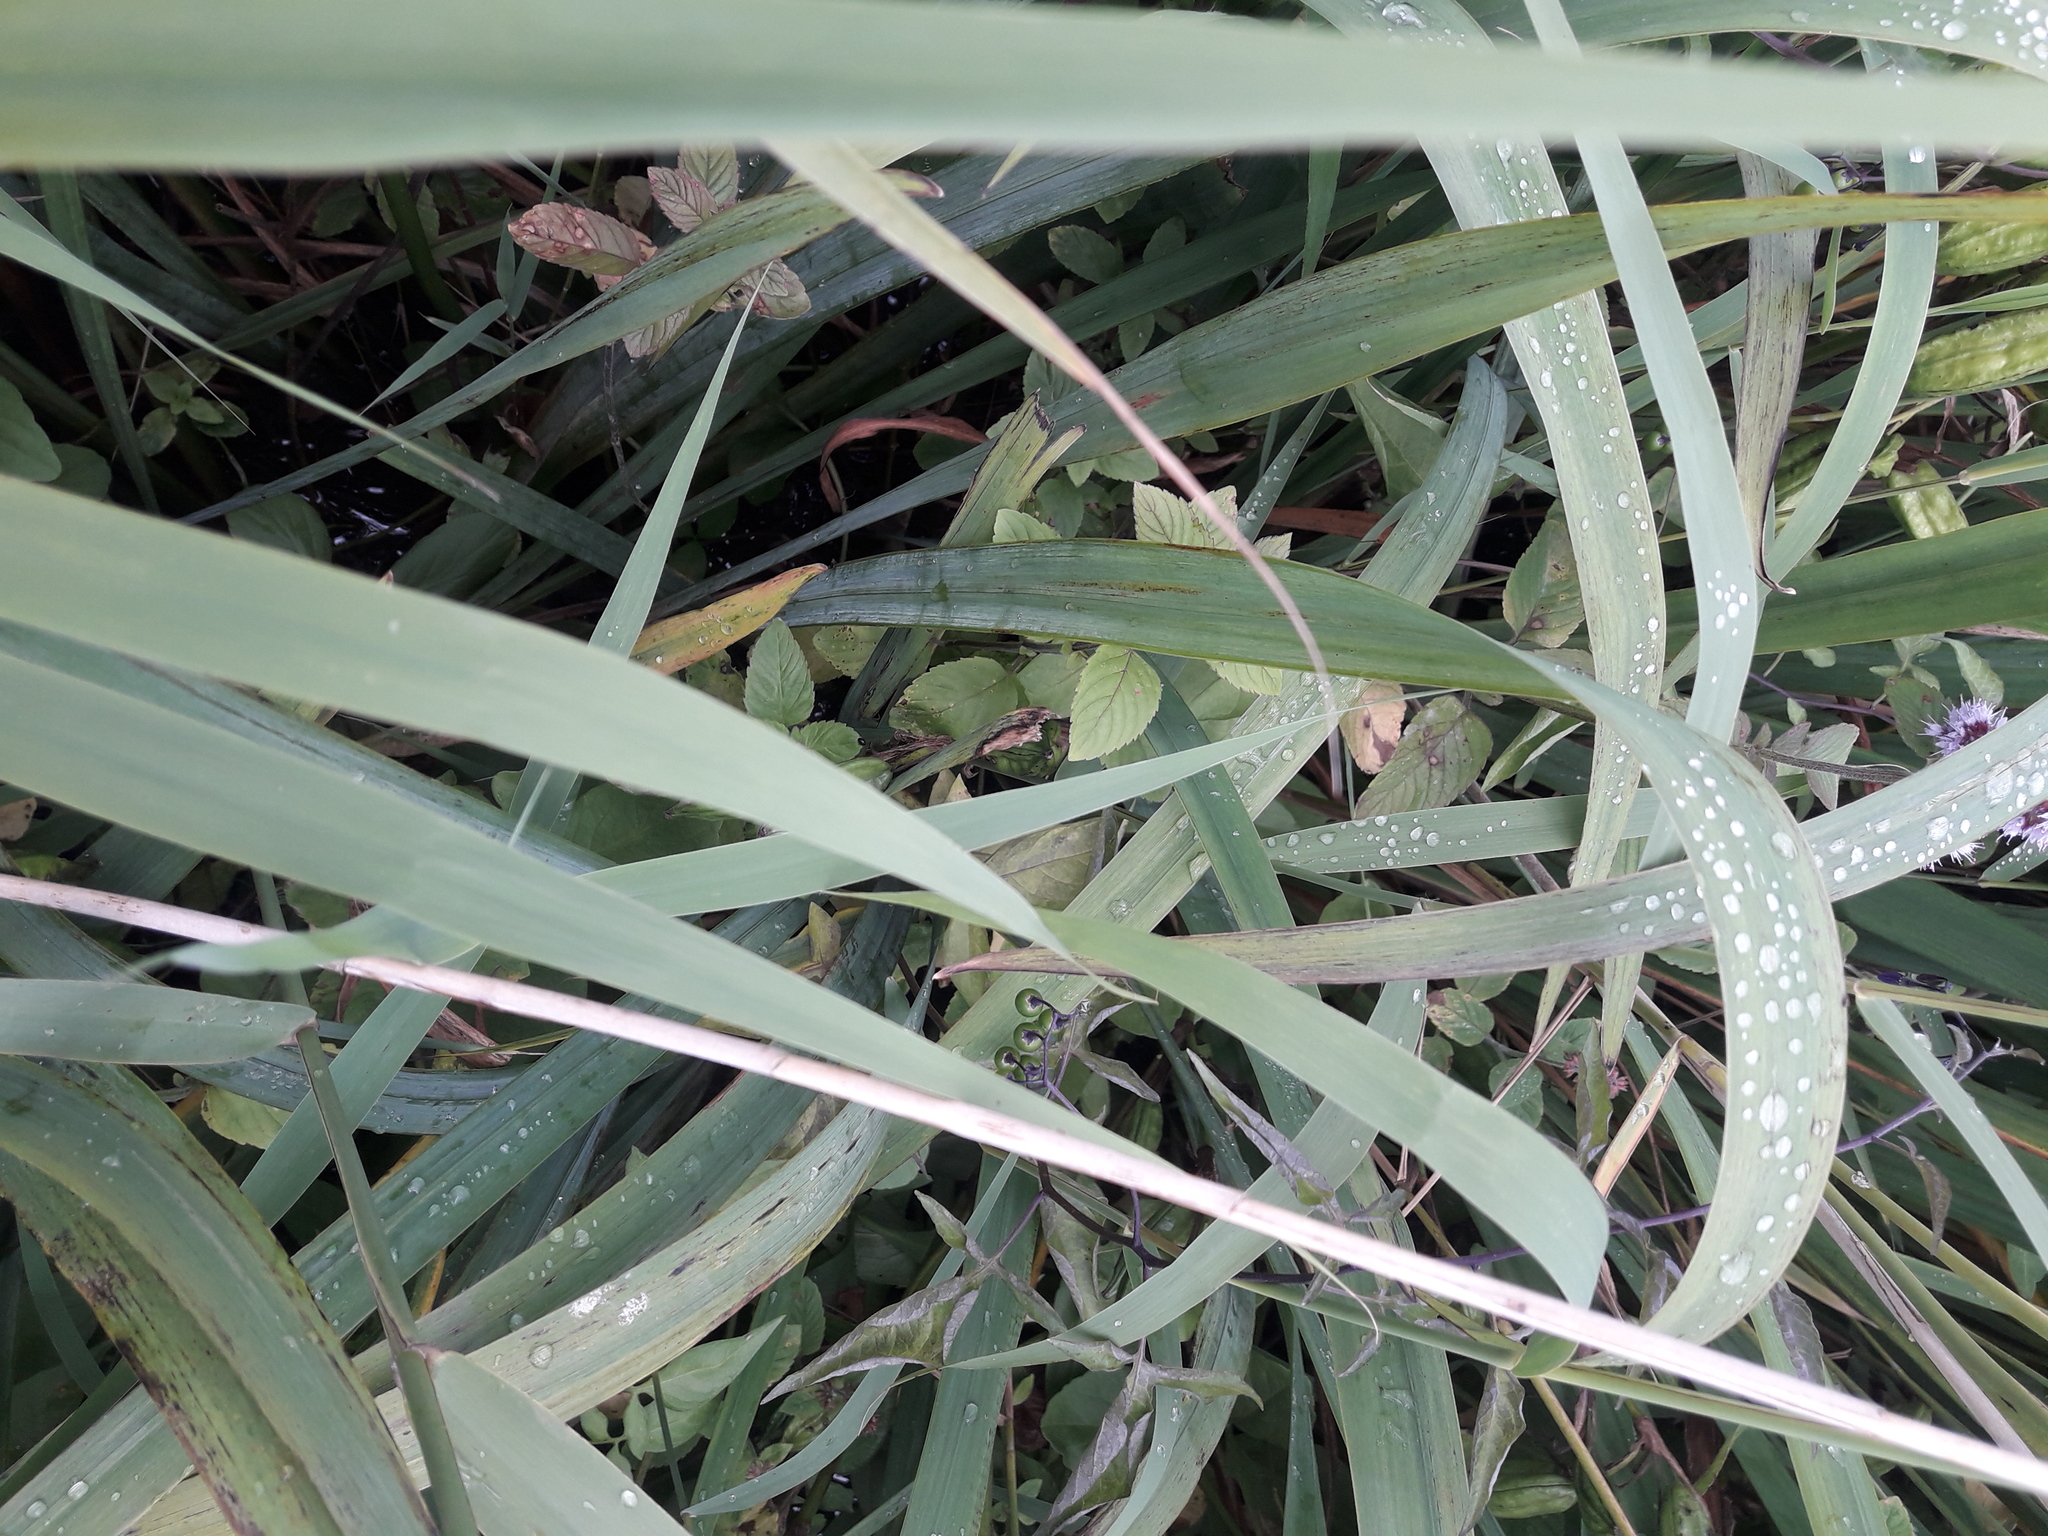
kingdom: Plantae
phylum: Tracheophyta
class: Liliopsida
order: Asparagales
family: Iridaceae
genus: Iris
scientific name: Iris pseudacorus
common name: Yellow flag
